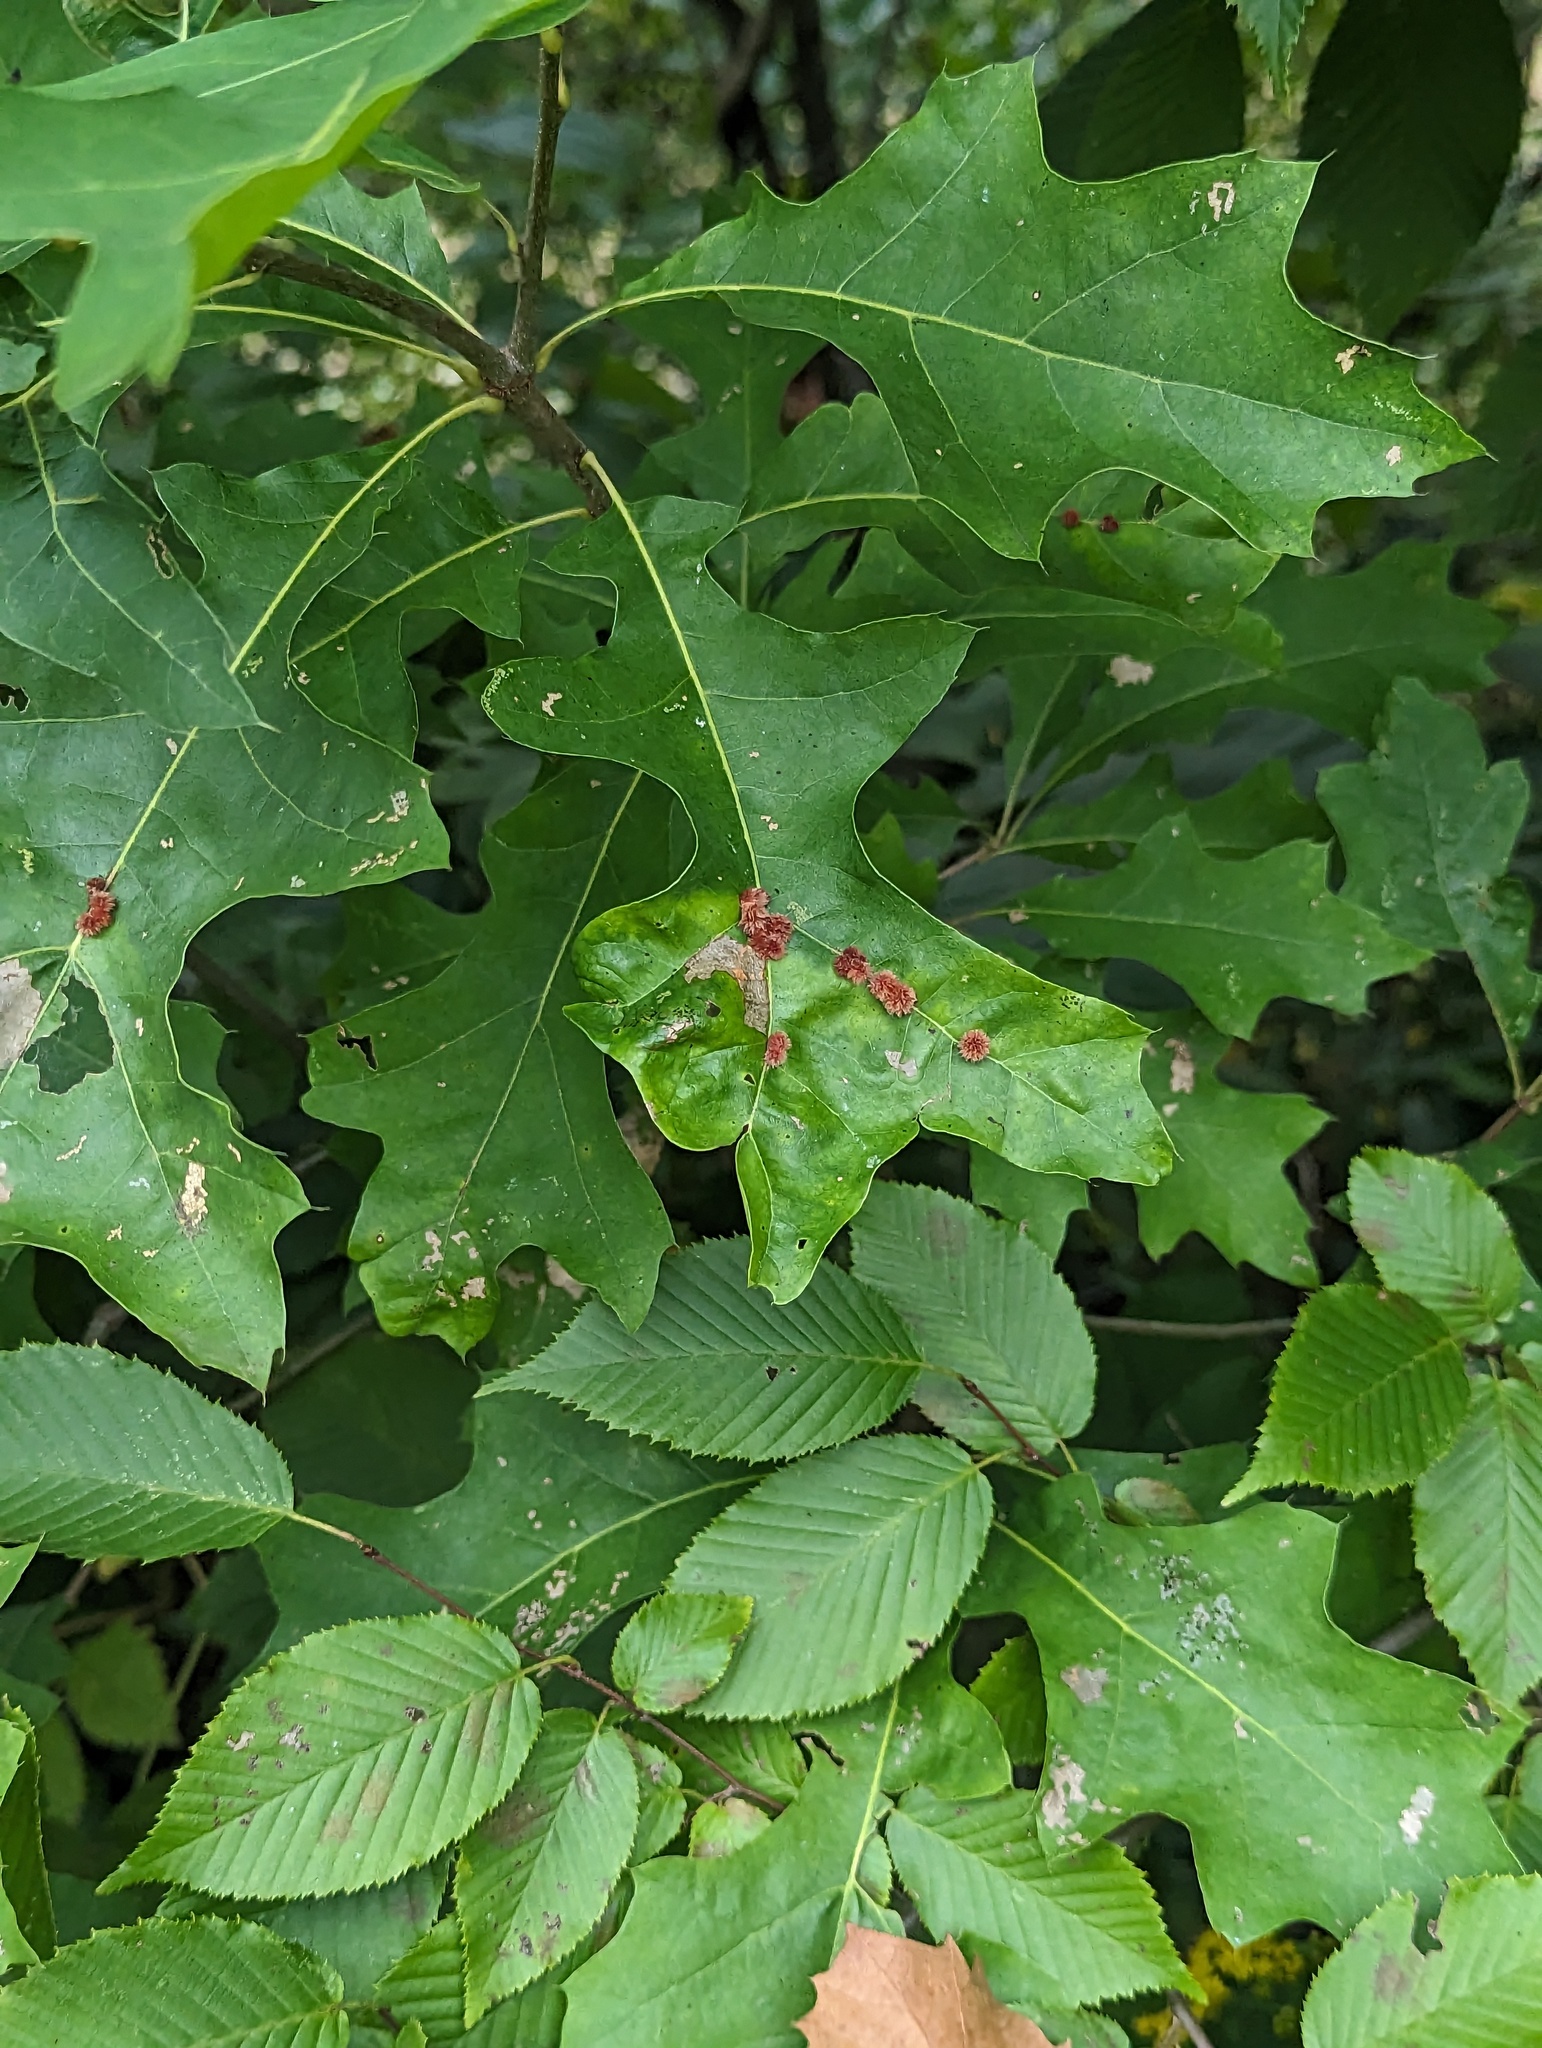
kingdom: Animalia
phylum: Arthropoda
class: Insecta
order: Hymenoptera
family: Cynipidae
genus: Callirhytis
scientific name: Callirhytis
